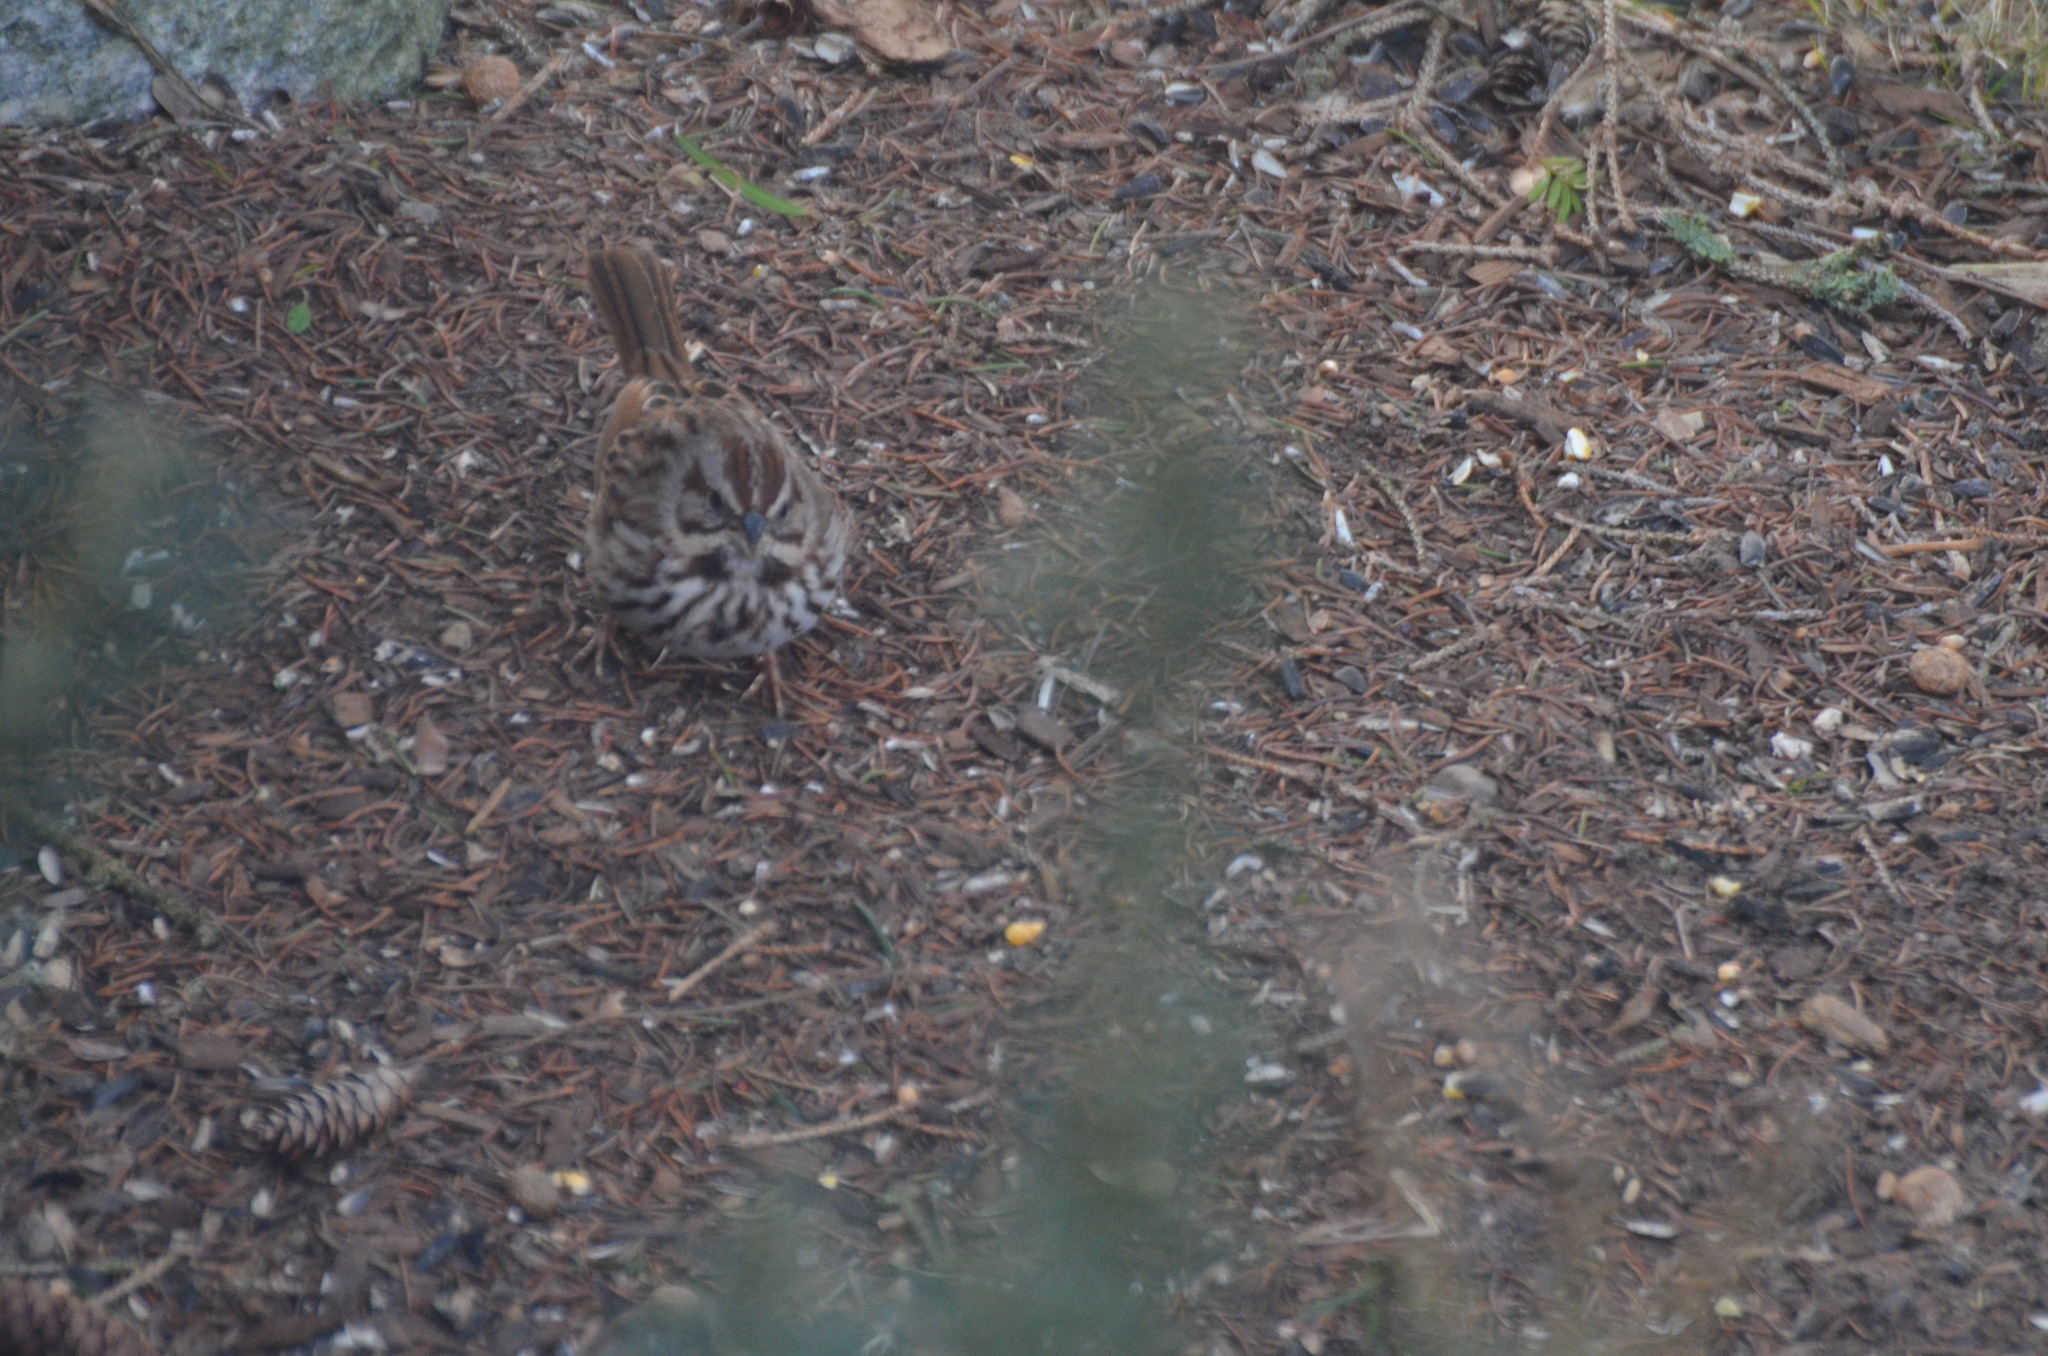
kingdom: Animalia
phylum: Chordata
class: Aves
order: Passeriformes
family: Passerellidae
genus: Melospiza
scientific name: Melospiza melodia
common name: Song sparrow
